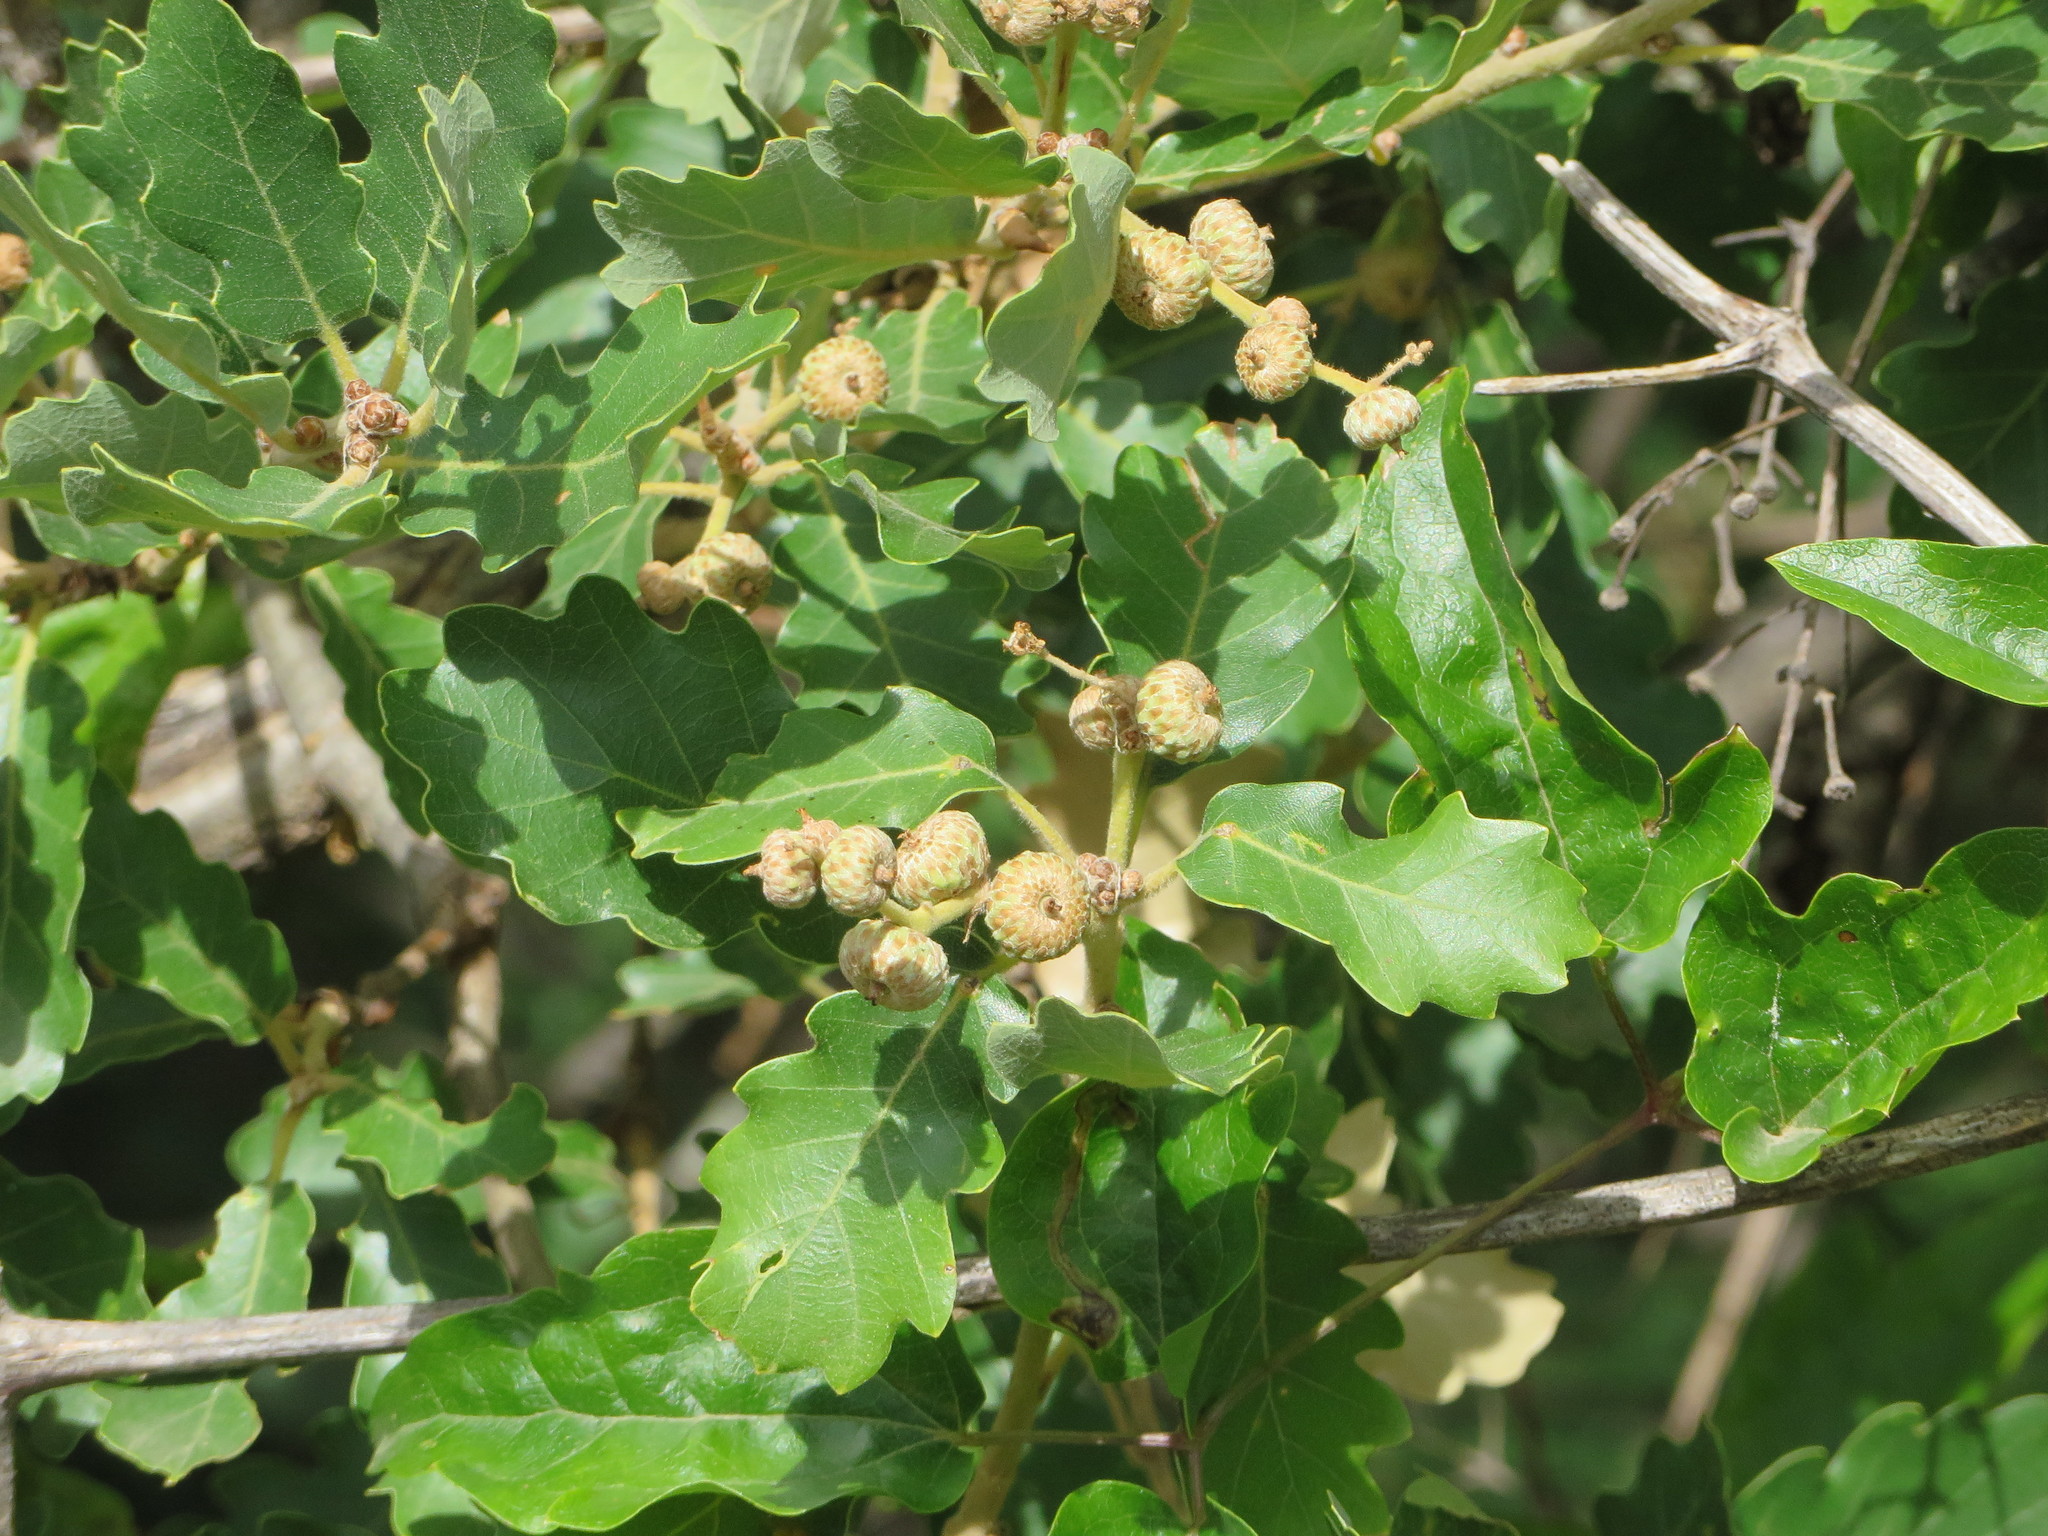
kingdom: Plantae
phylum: Tracheophyta
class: Magnoliopsida
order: Fagales
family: Fagaceae
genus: Quercus
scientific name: Quercus pubescens
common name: Downy oak
